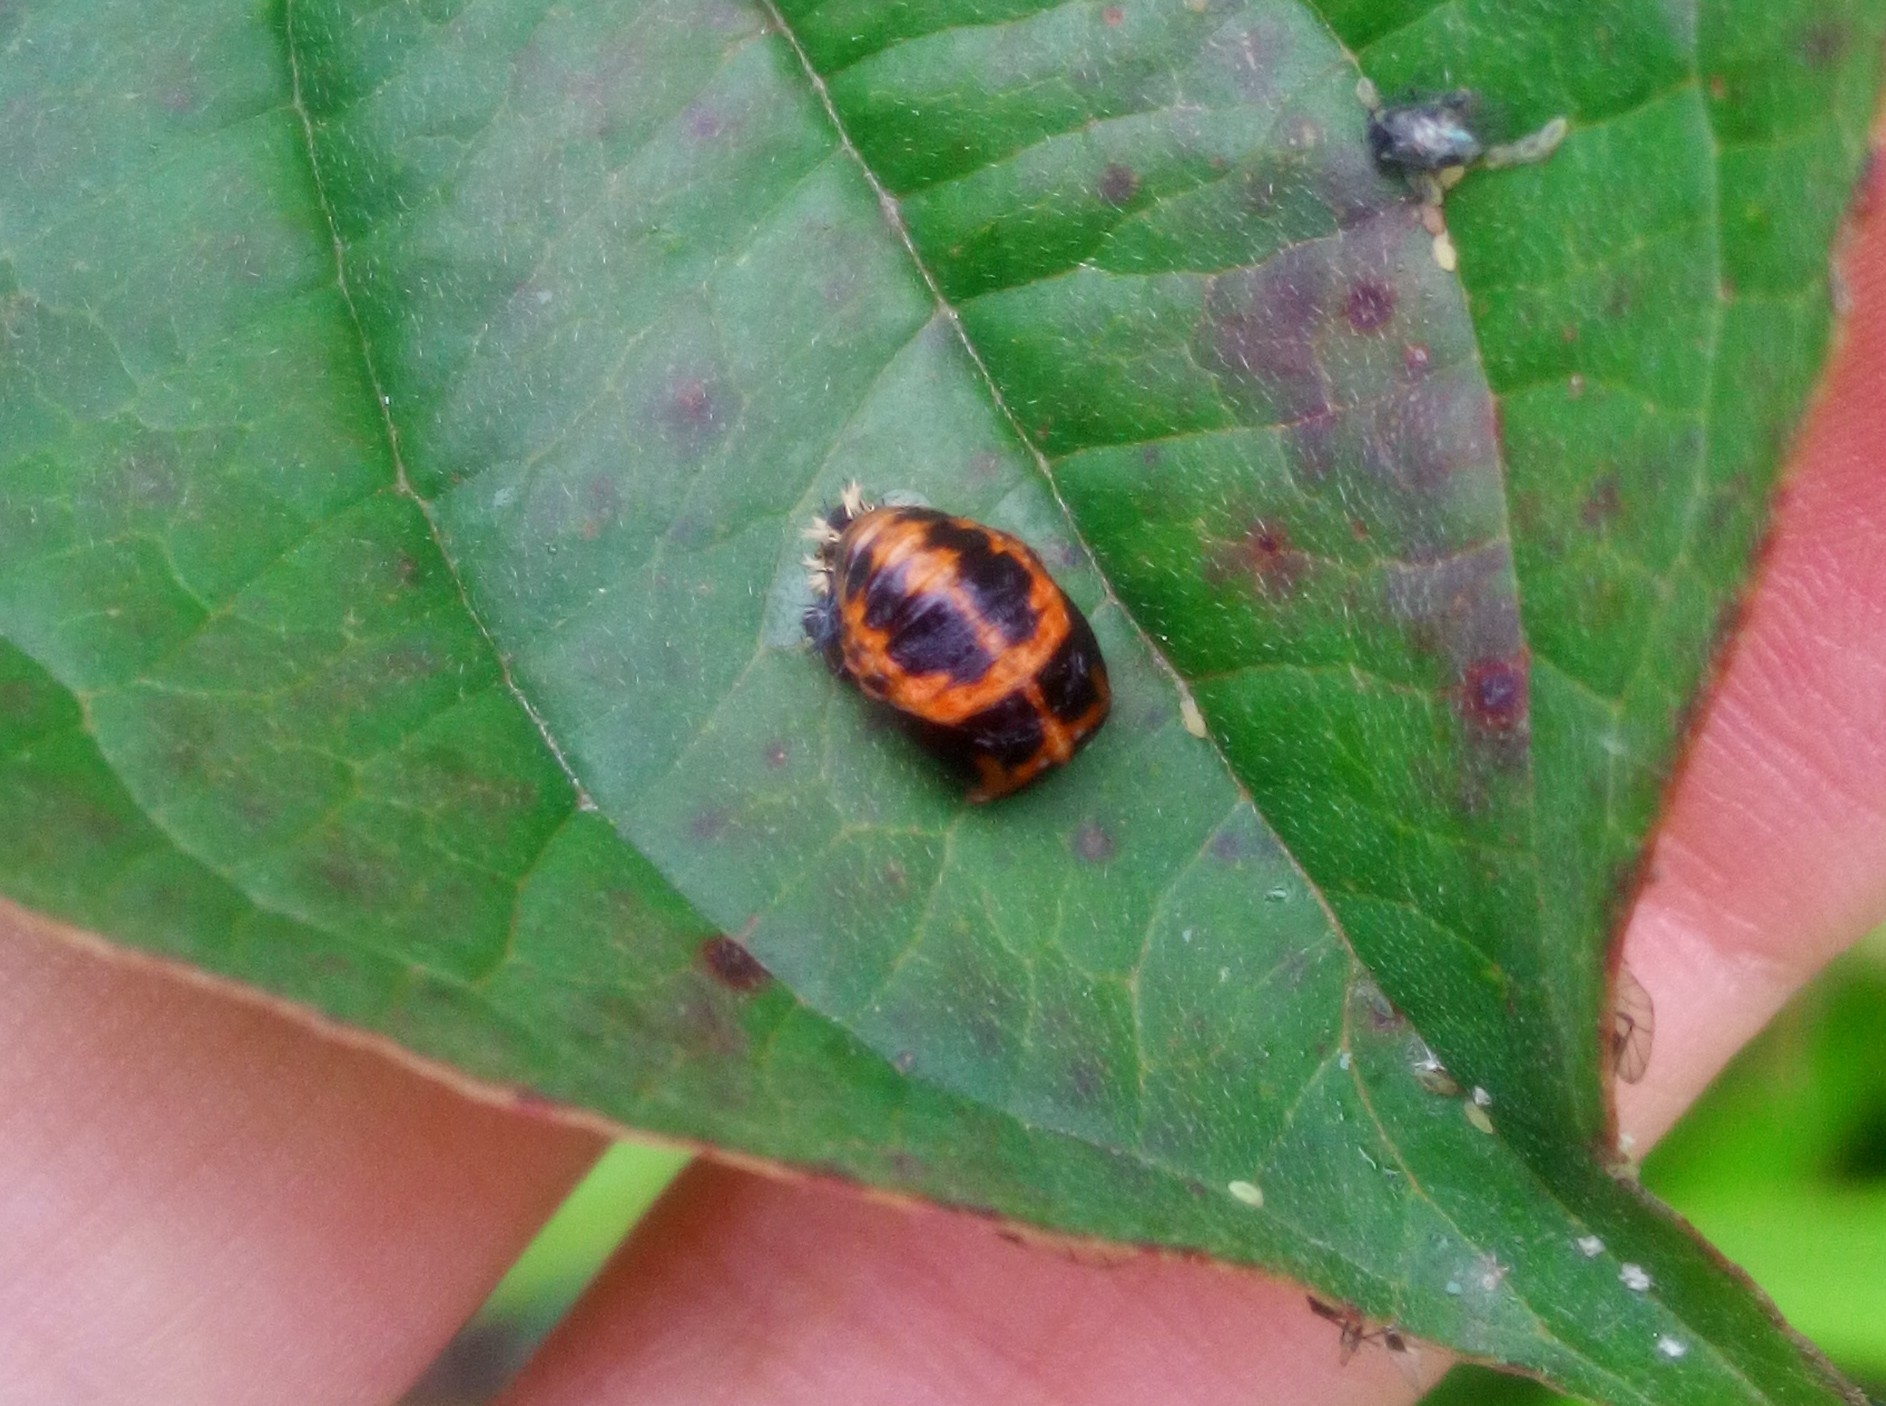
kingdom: Animalia
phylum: Arthropoda
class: Insecta
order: Coleoptera
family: Coccinellidae
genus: Harmonia
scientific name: Harmonia axyridis
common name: Harlequin ladybird
